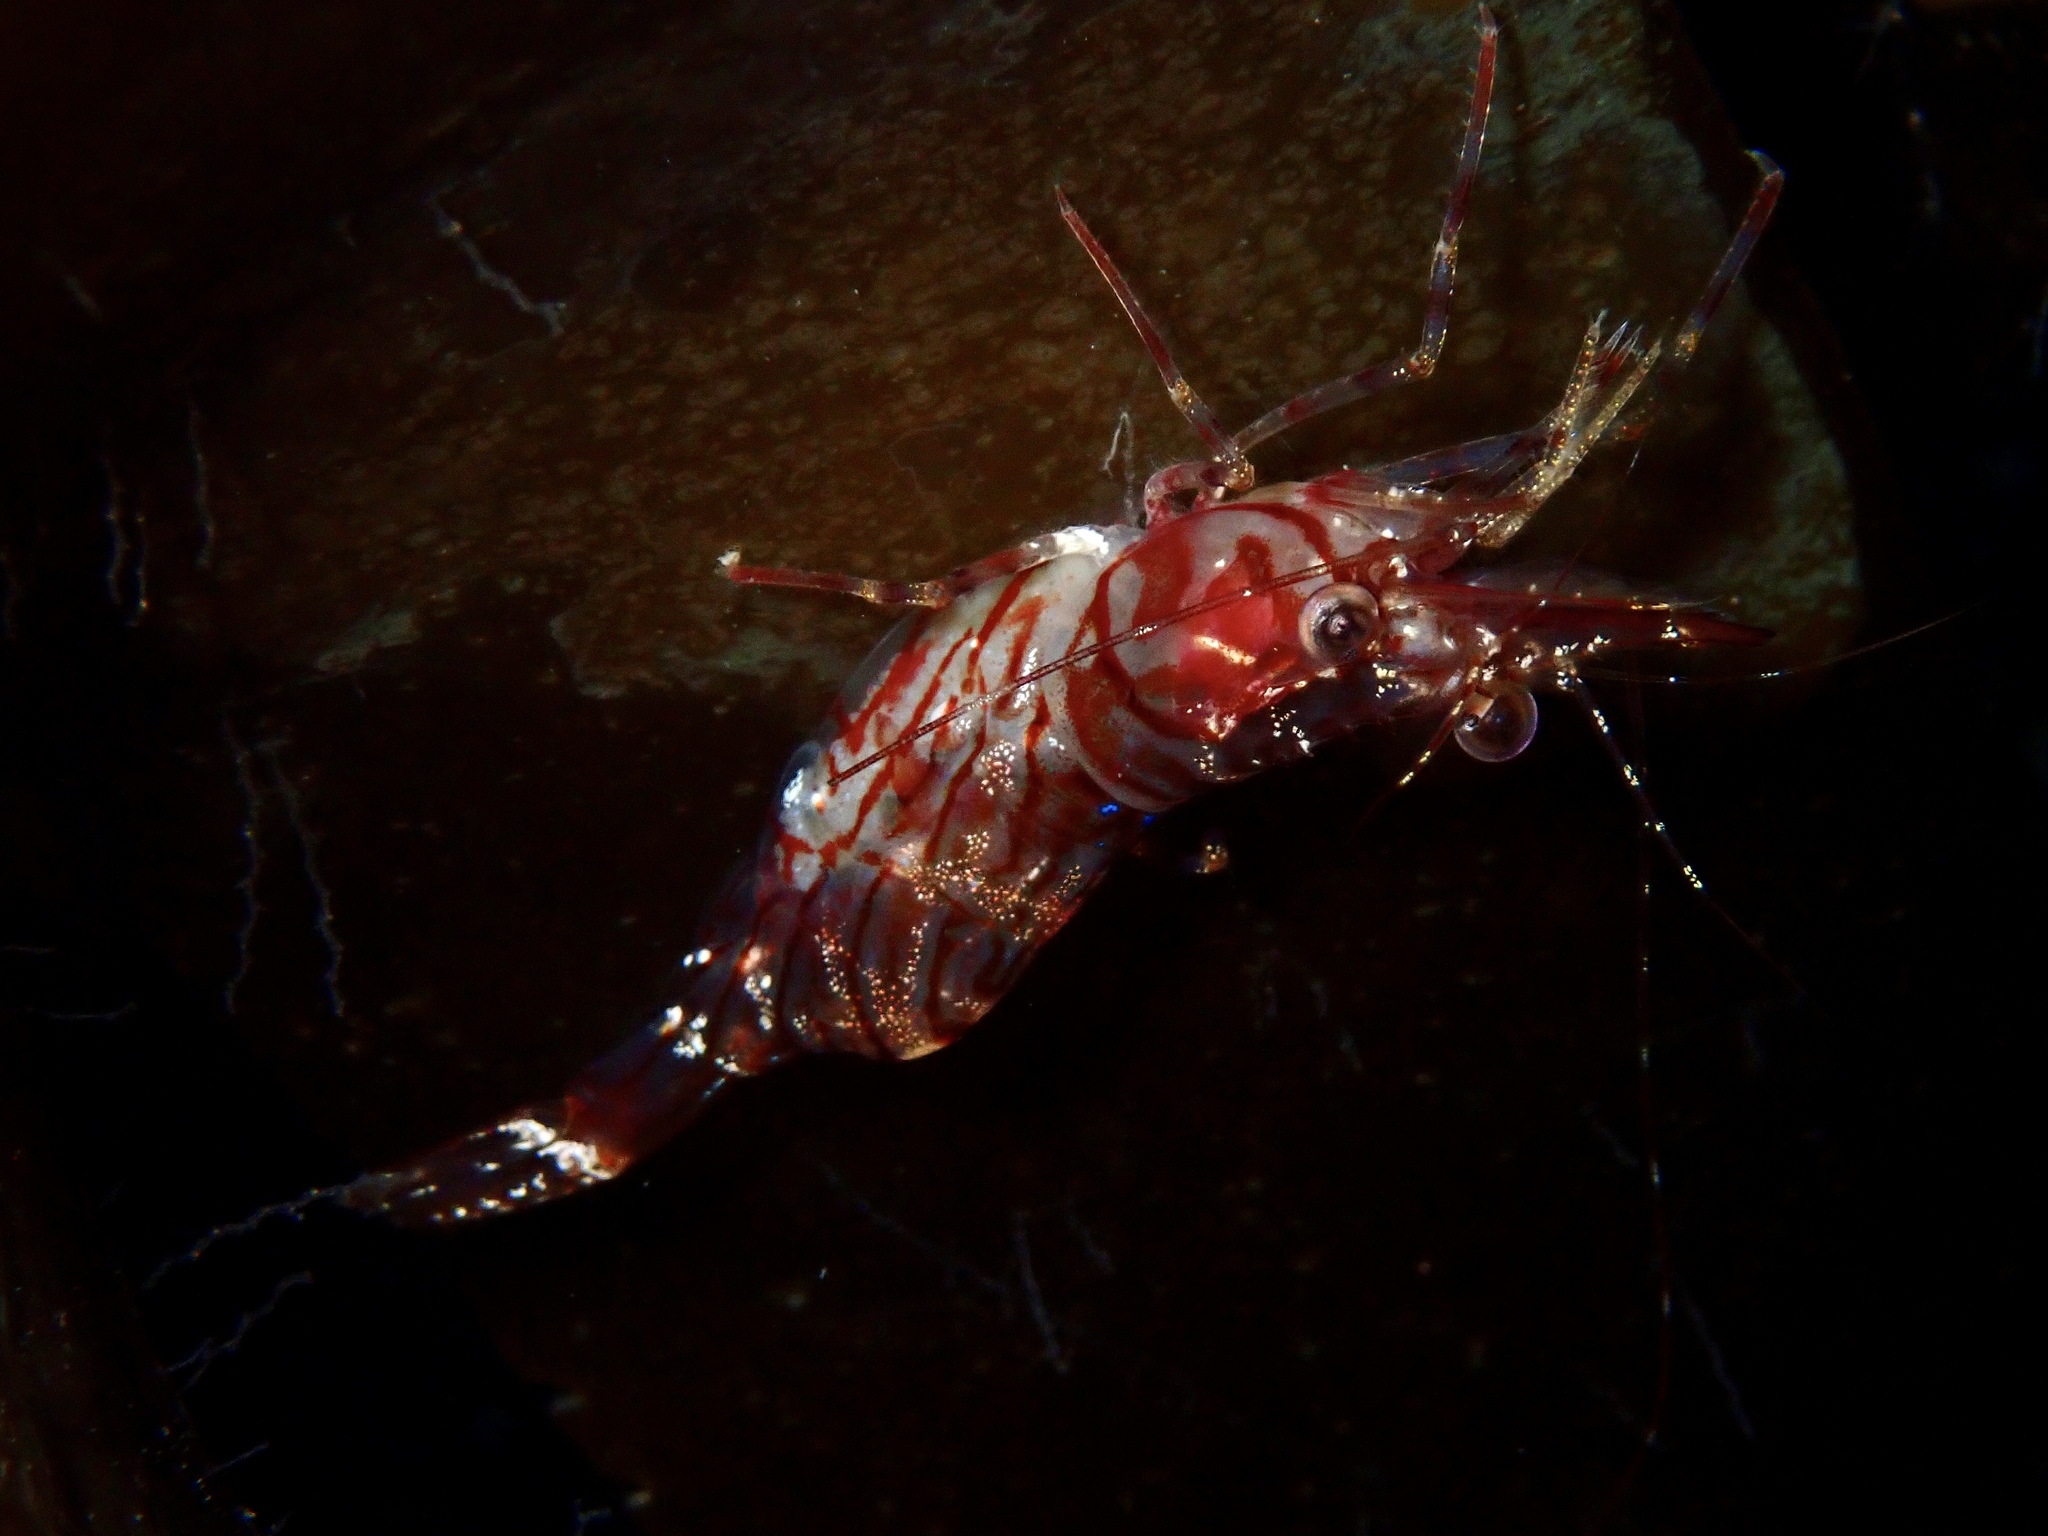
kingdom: Animalia
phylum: Arthropoda
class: Malacostraca
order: Decapoda
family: Pandalidae
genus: Pandalus
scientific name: Pandalus montagui
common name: Pink shrimp
